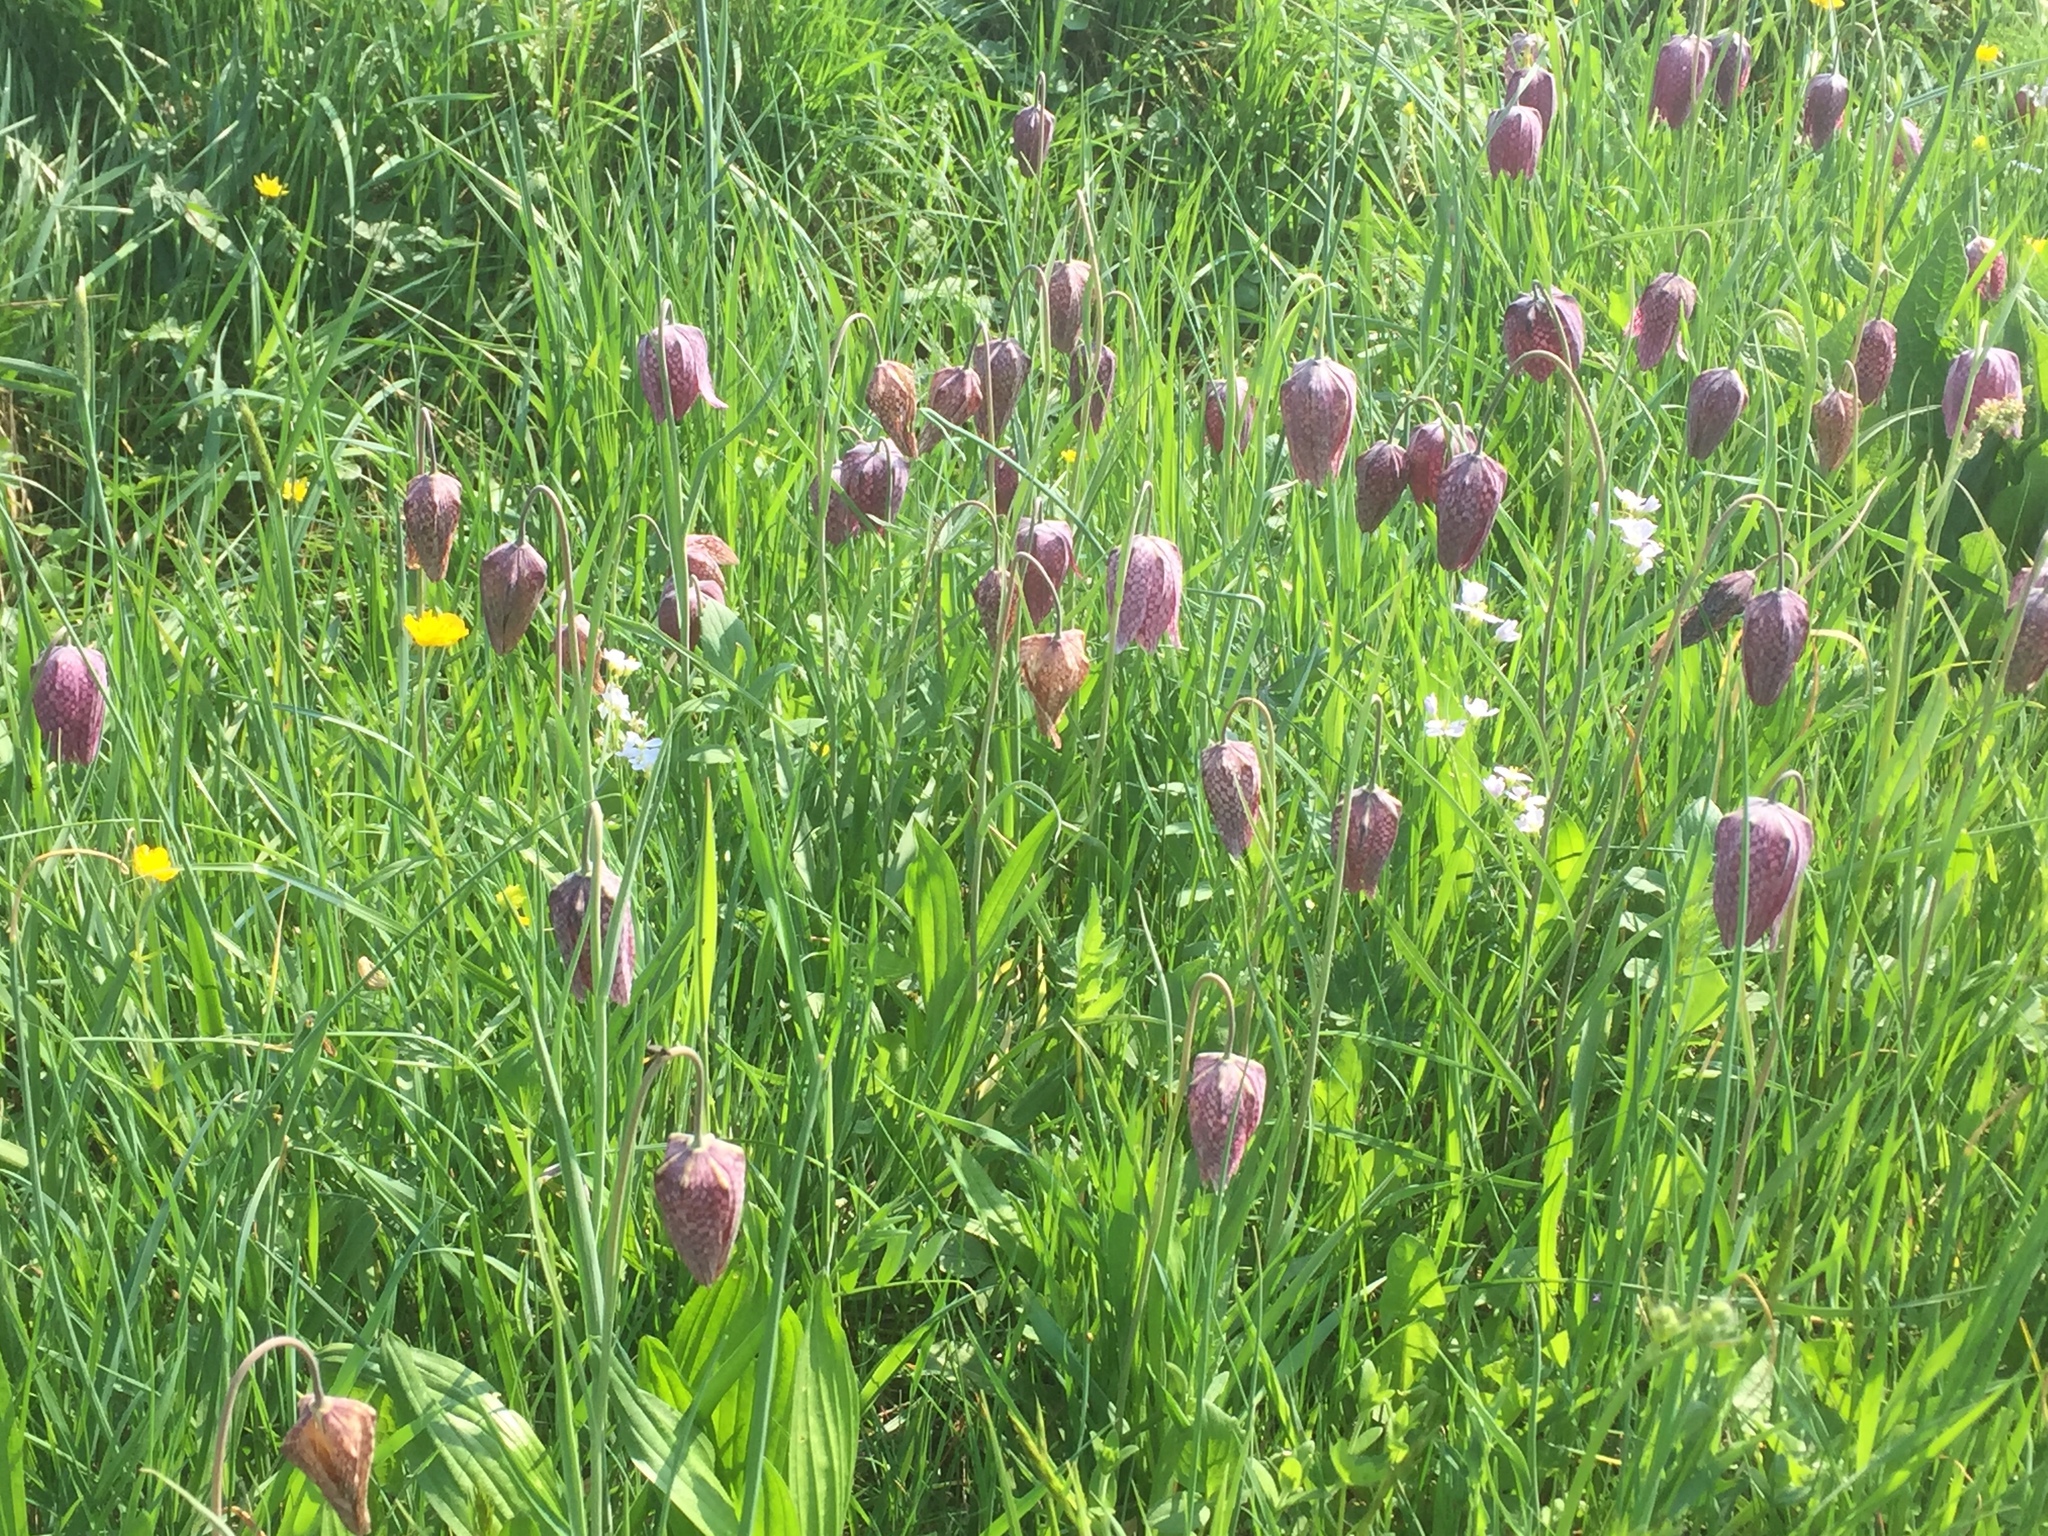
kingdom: Plantae
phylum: Tracheophyta
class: Liliopsida
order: Liliales
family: Liliaceae
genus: Fritillaria
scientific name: Fritillaria meleagris
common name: Fritillary
